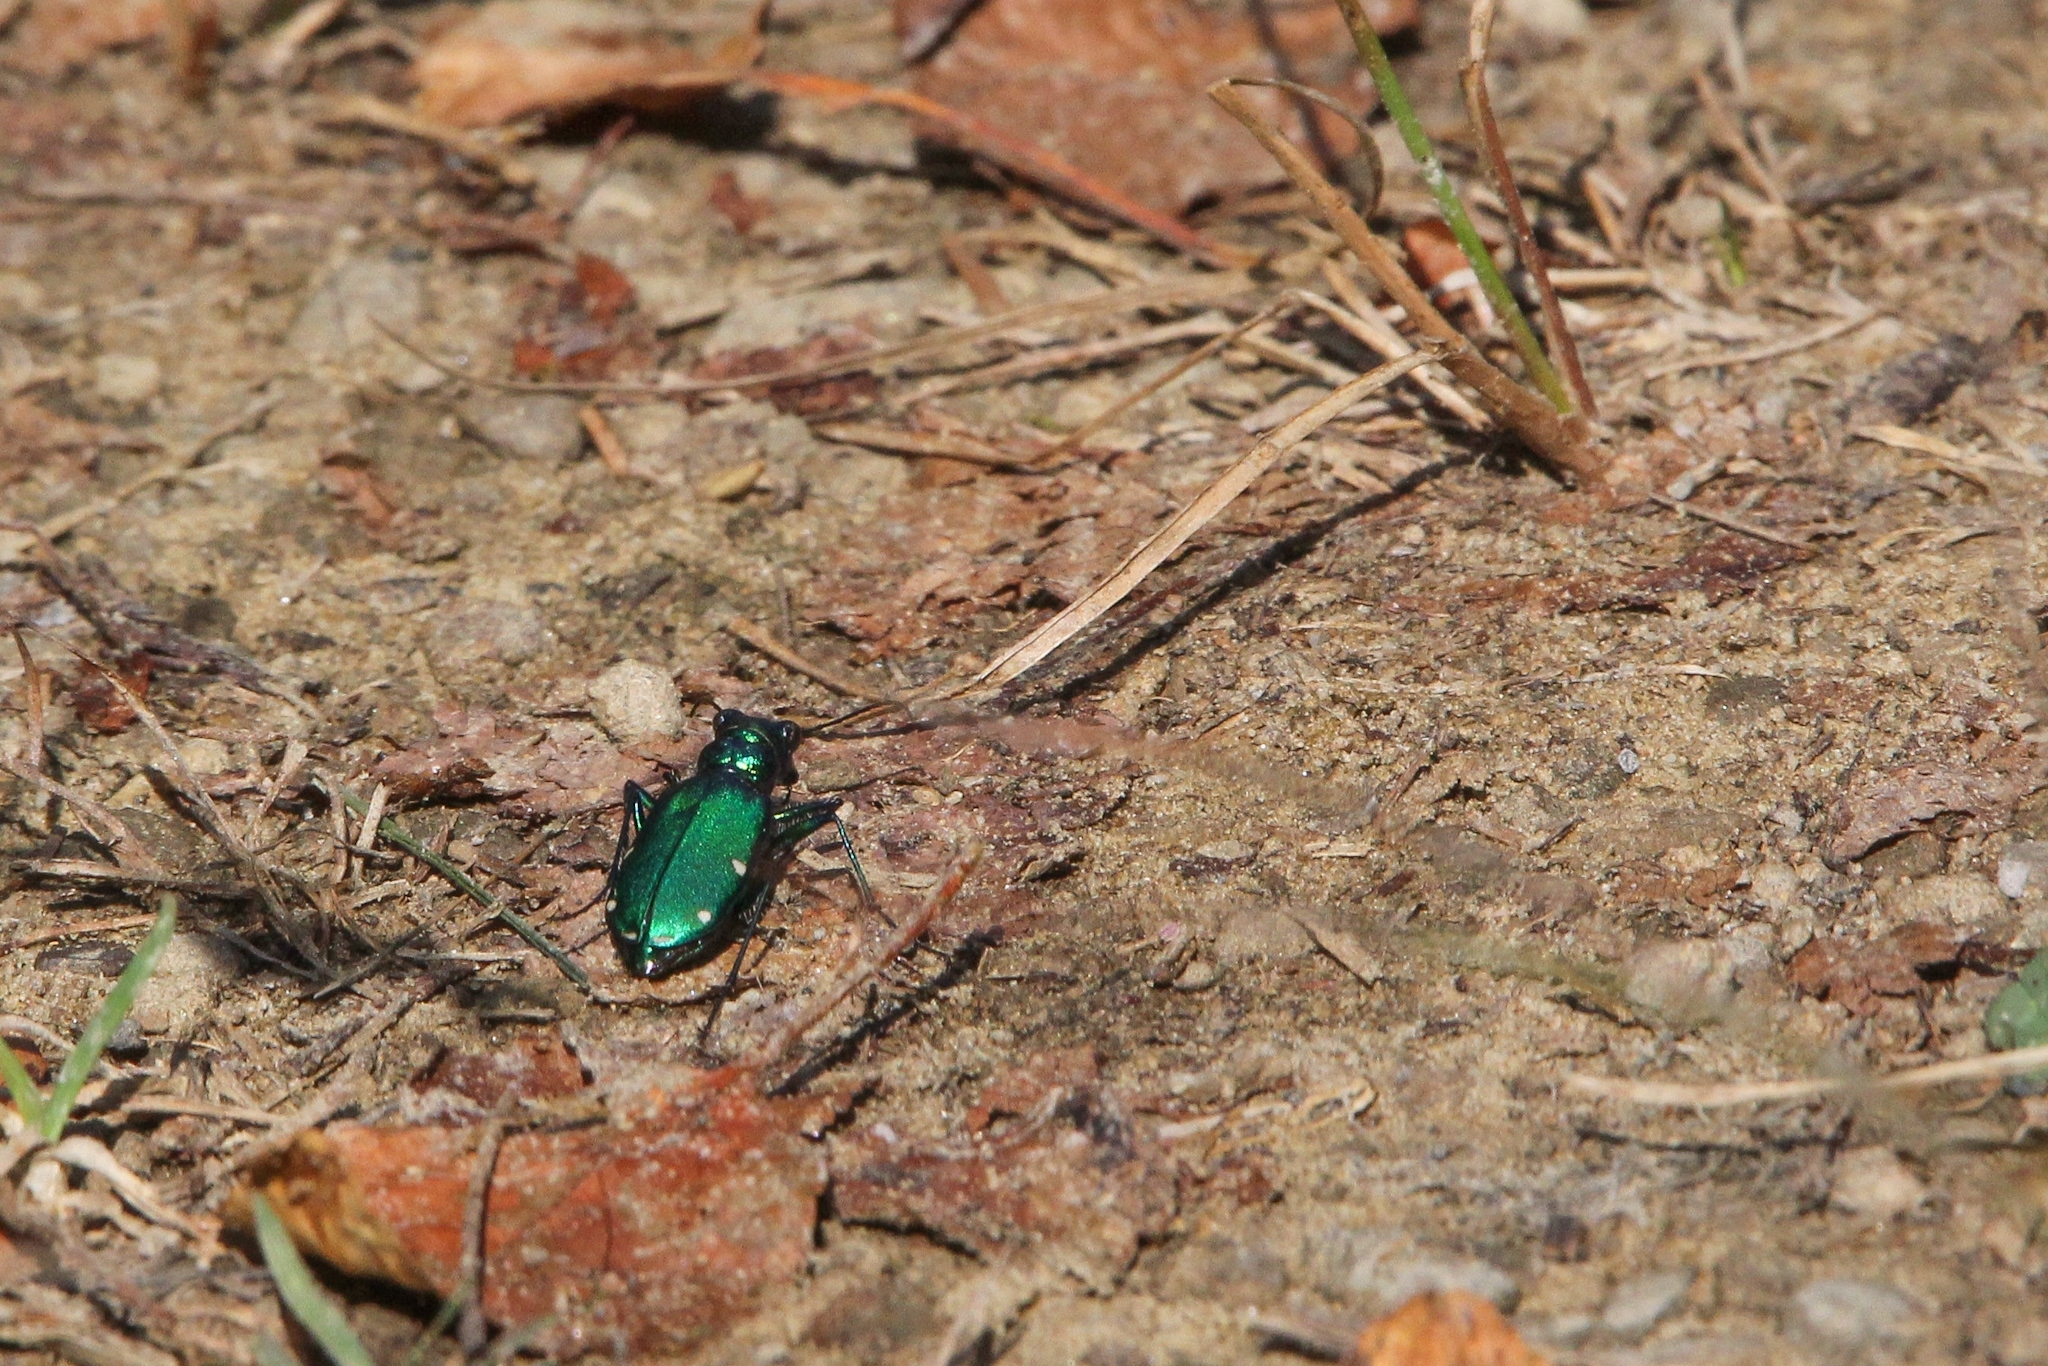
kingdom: Animalia
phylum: Arthropoda
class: Insecta
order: Coleoptera
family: Carabidae
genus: Cicindela
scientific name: Cicindela sexguttata
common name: Six-spotted tiger beetle
